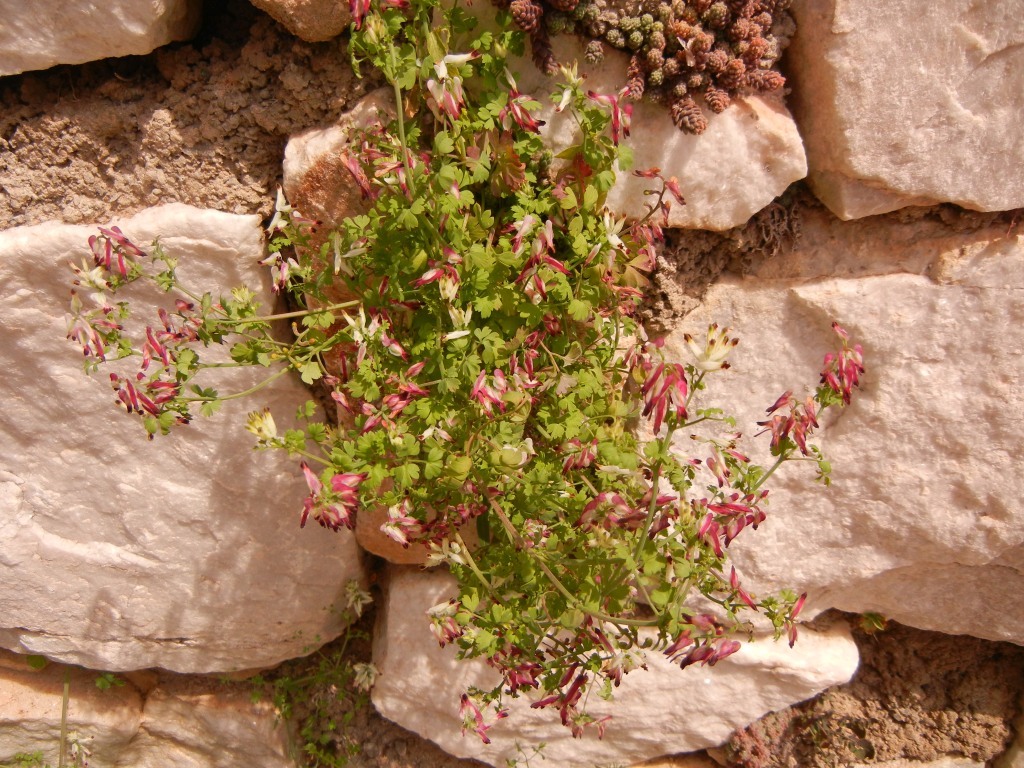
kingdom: Plantae
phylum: Tracheophyta
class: Magnoliopsida
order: Ranunculales
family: Papaveraceae
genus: Fumaria
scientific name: Fumaria capreolata
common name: White ramping-fumitory
